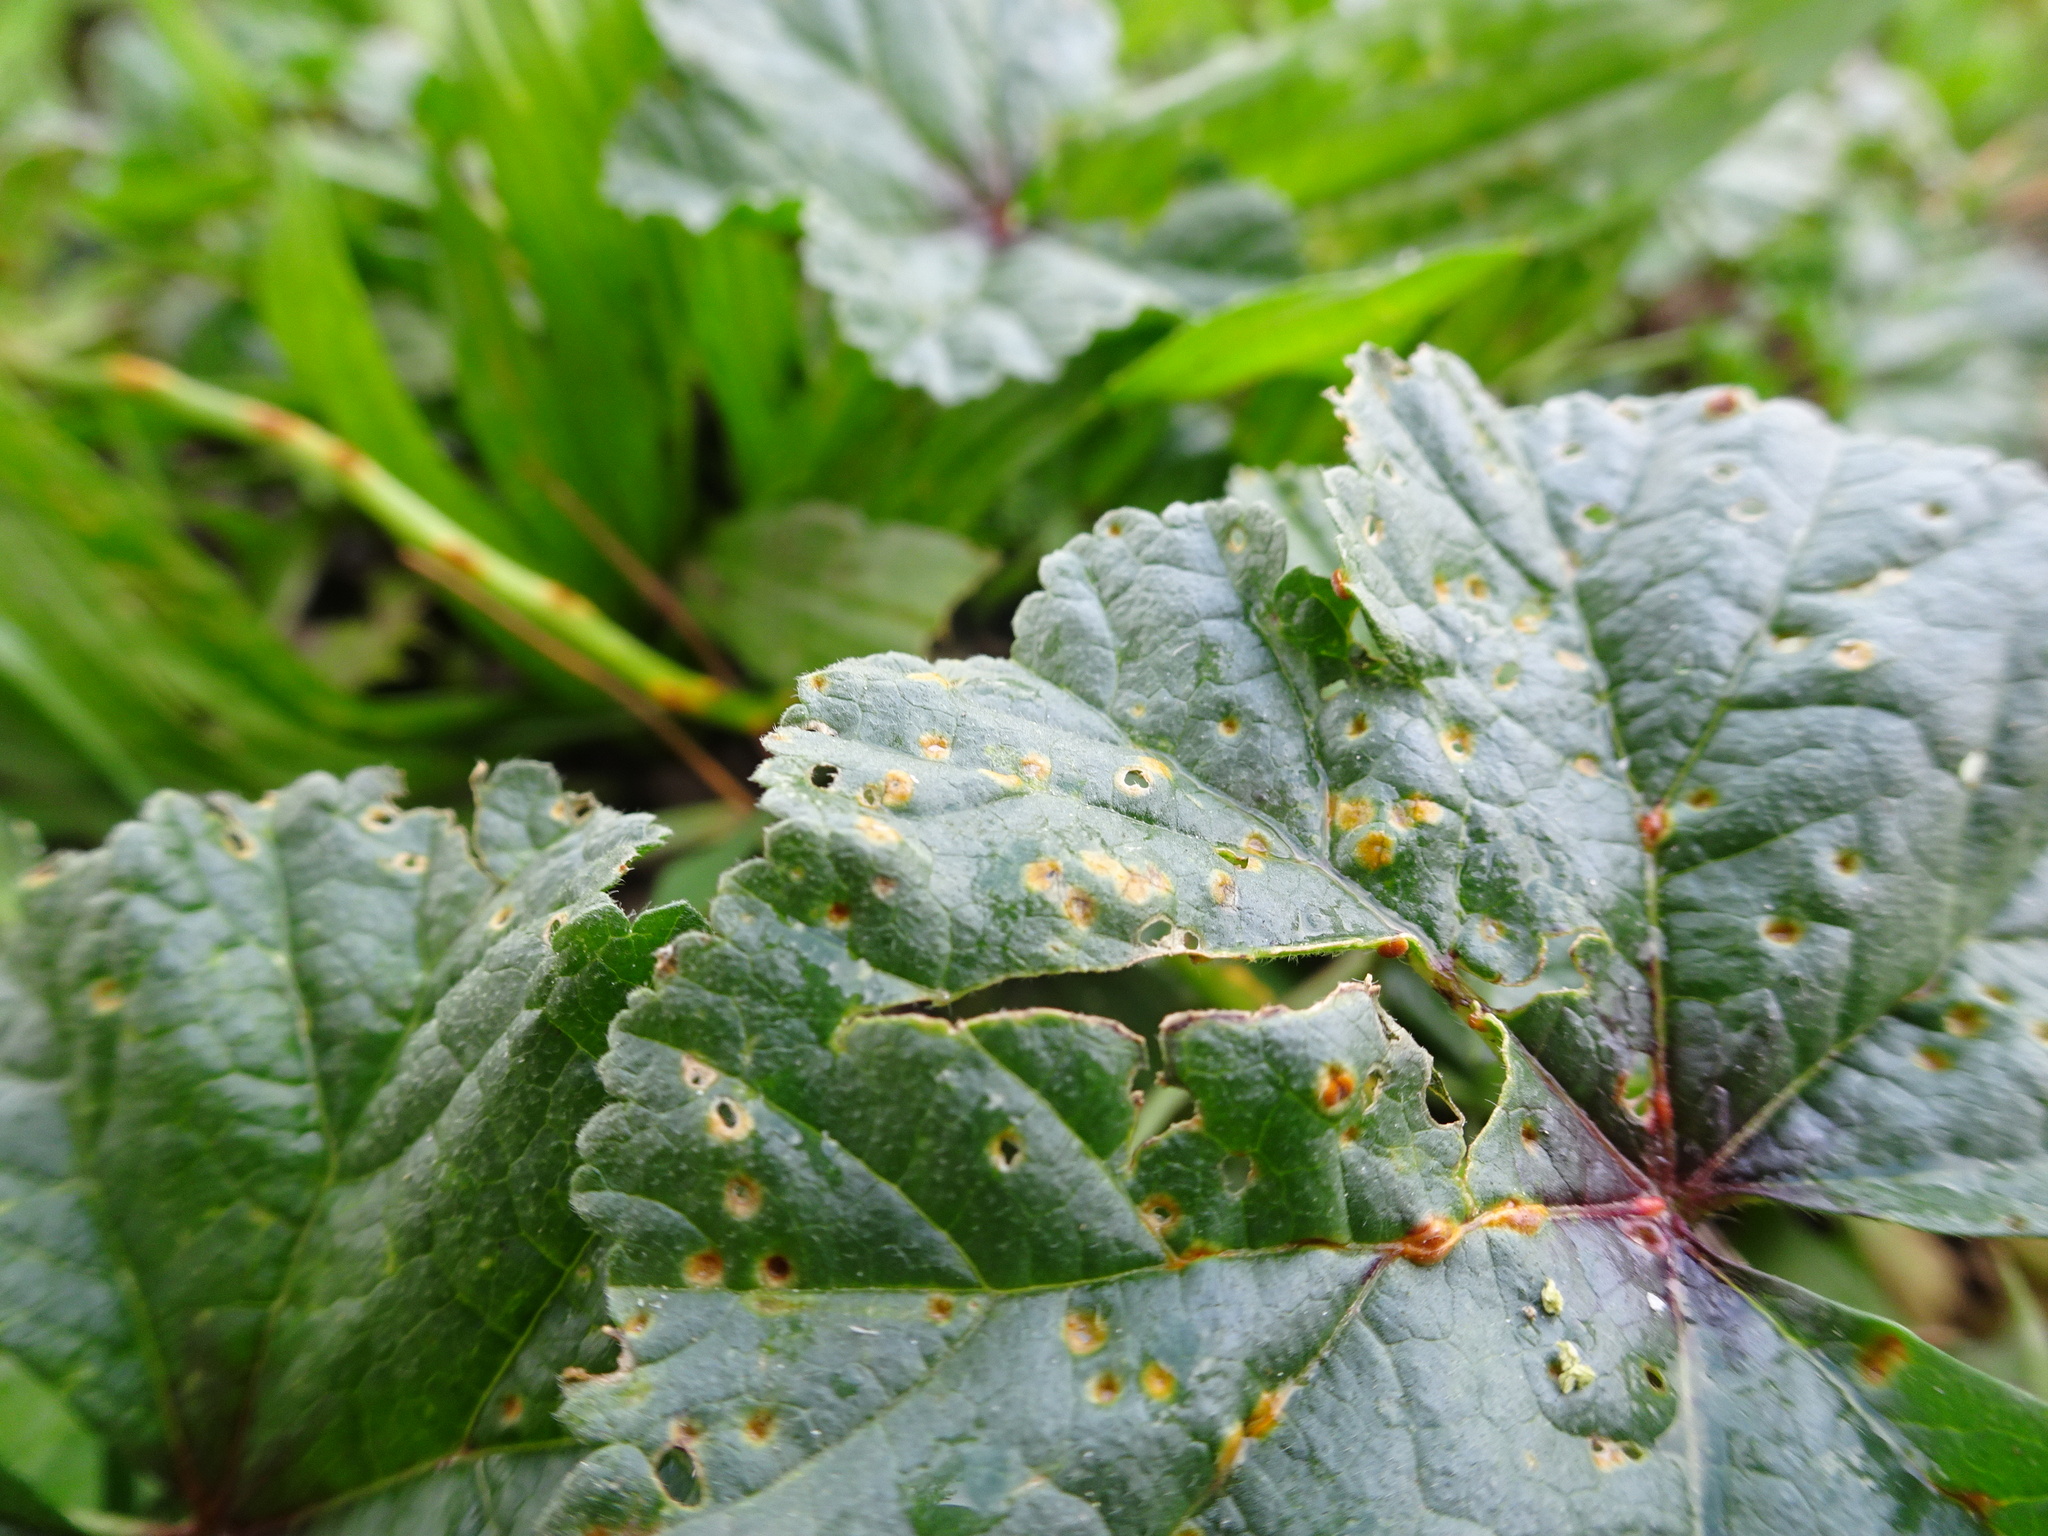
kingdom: Fungi
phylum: Basidiomycota
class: Pucciniomycetes
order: Pucciniales
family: Pucciniaceae
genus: Puccinia
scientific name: Puccinia malvacearum
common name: Hollyhock rust
